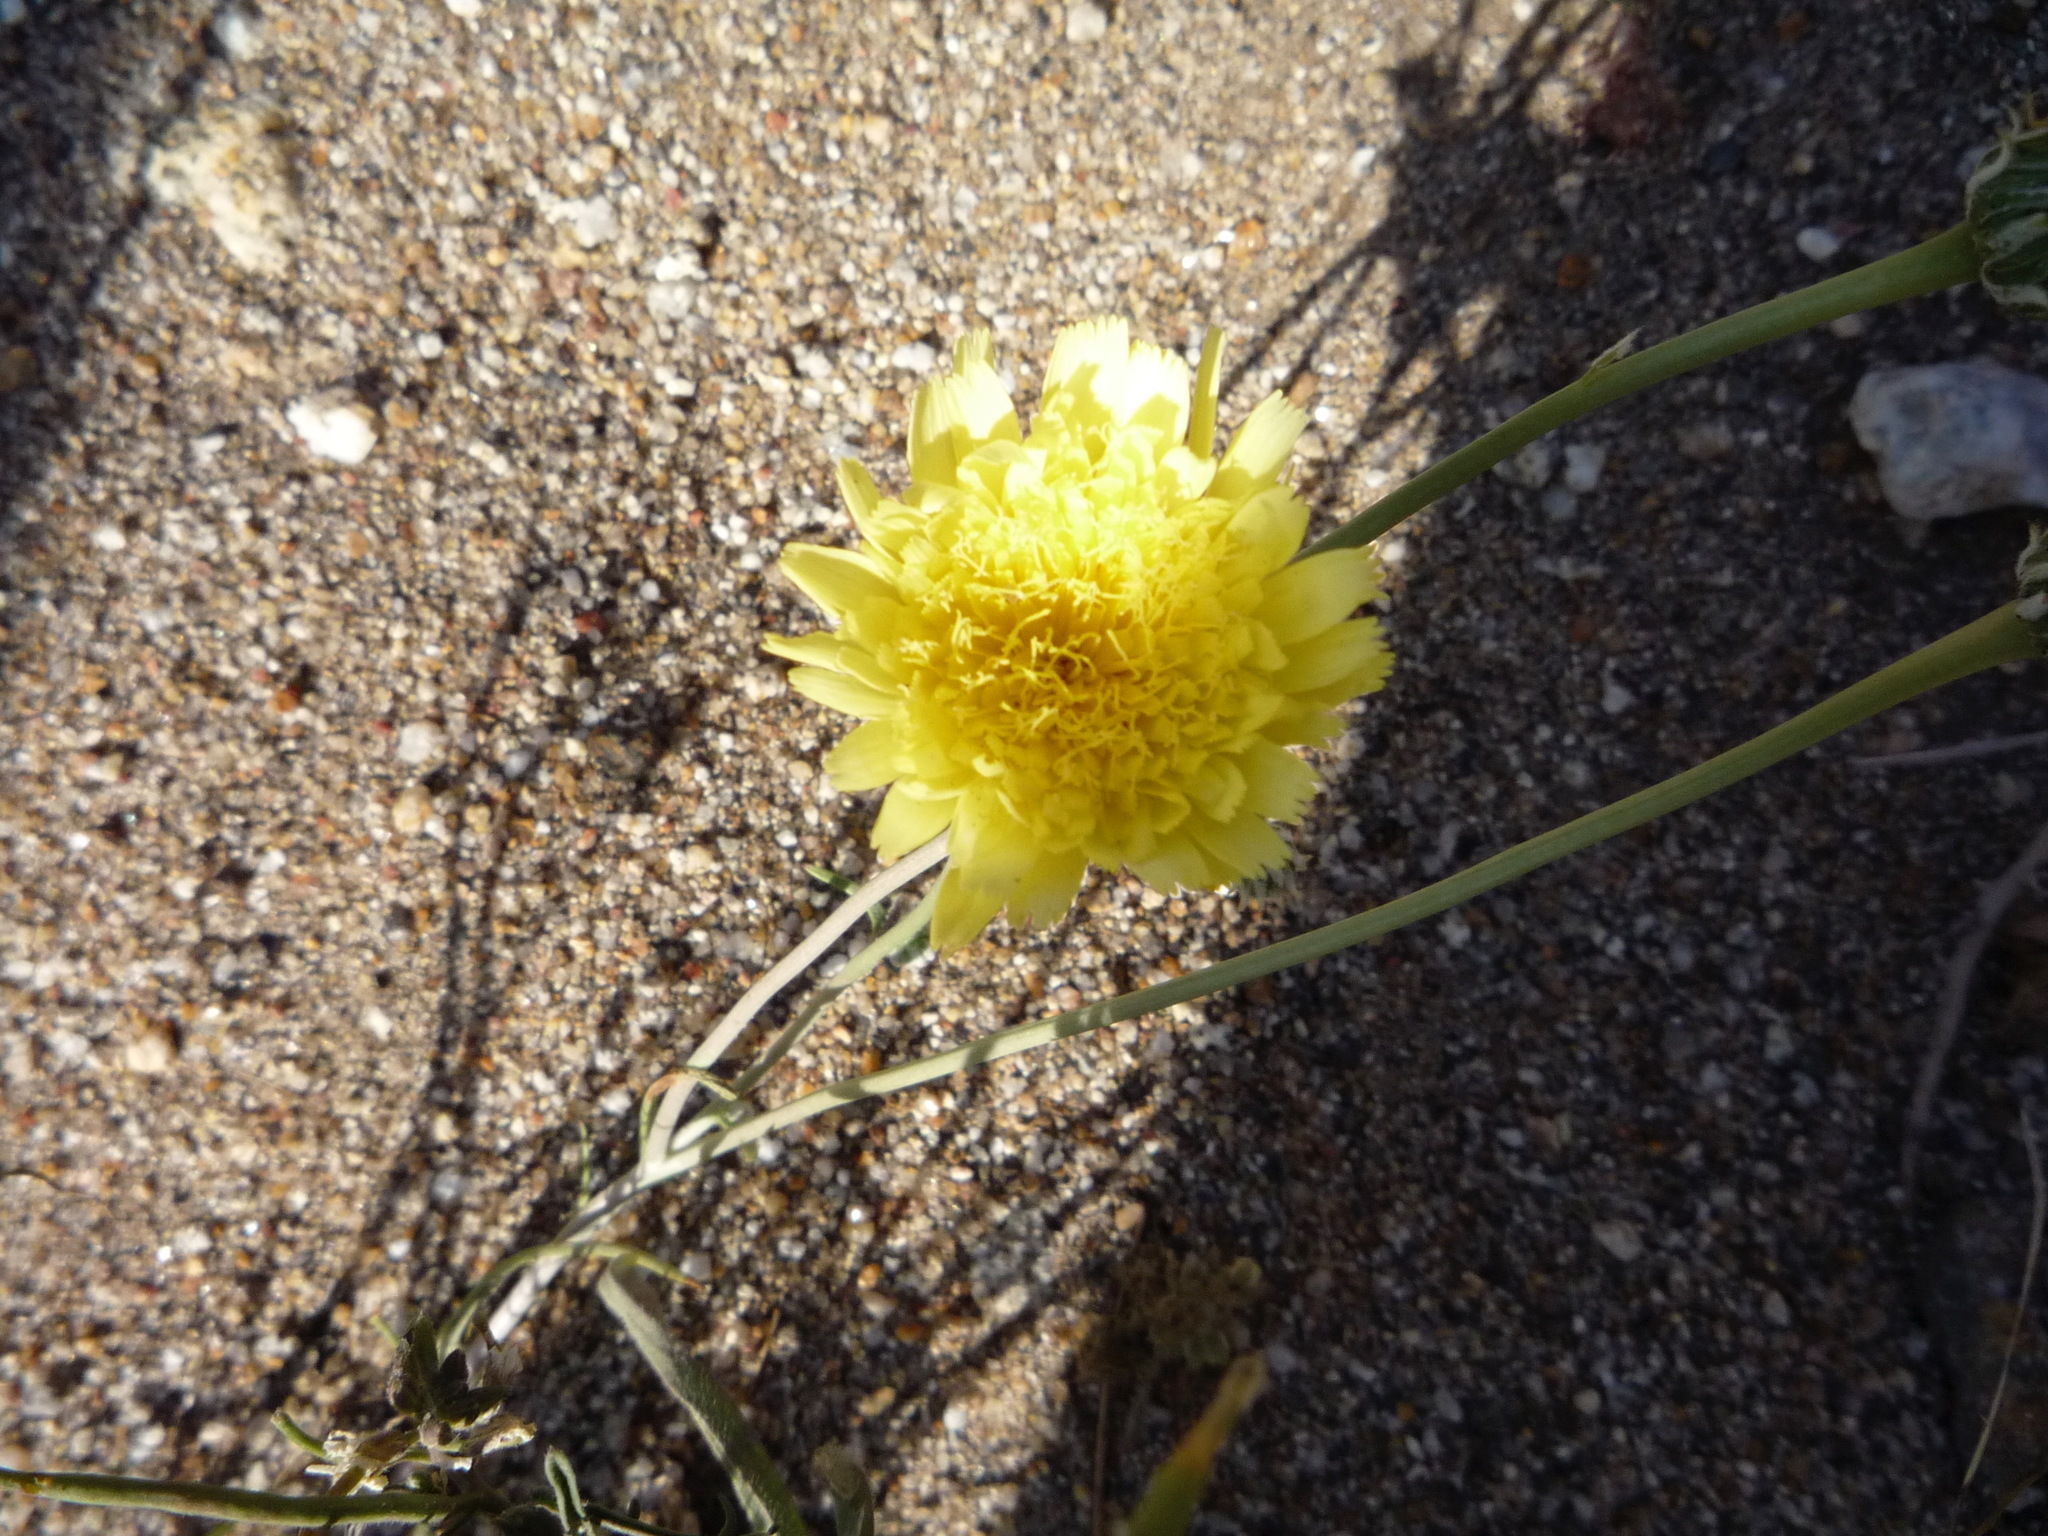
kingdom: Plantae
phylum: Tracheophyta
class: Magnoliopsida
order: Asterales
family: Asteraceae
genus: Malacothrix
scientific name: Malacothrix glabrata
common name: Smooth desert-dandelion
